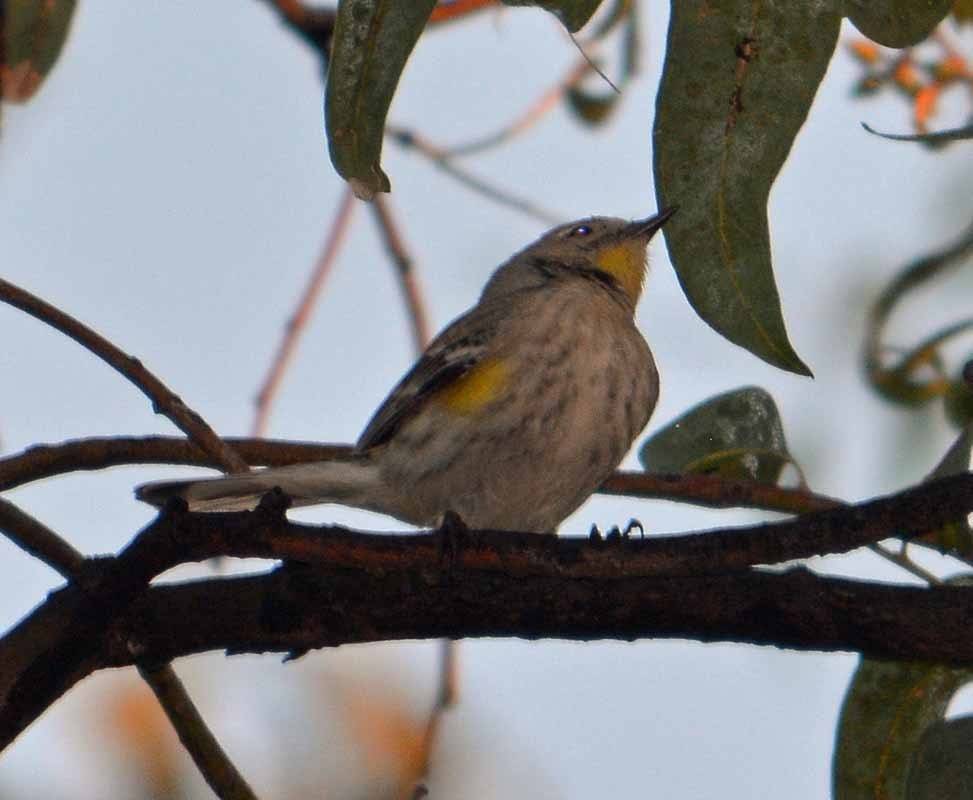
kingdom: Animalia
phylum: Chordata
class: Aves
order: Passeriformes
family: Parulidae
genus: Setophaga
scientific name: Setophaga coronata
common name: Myrtle warbler
